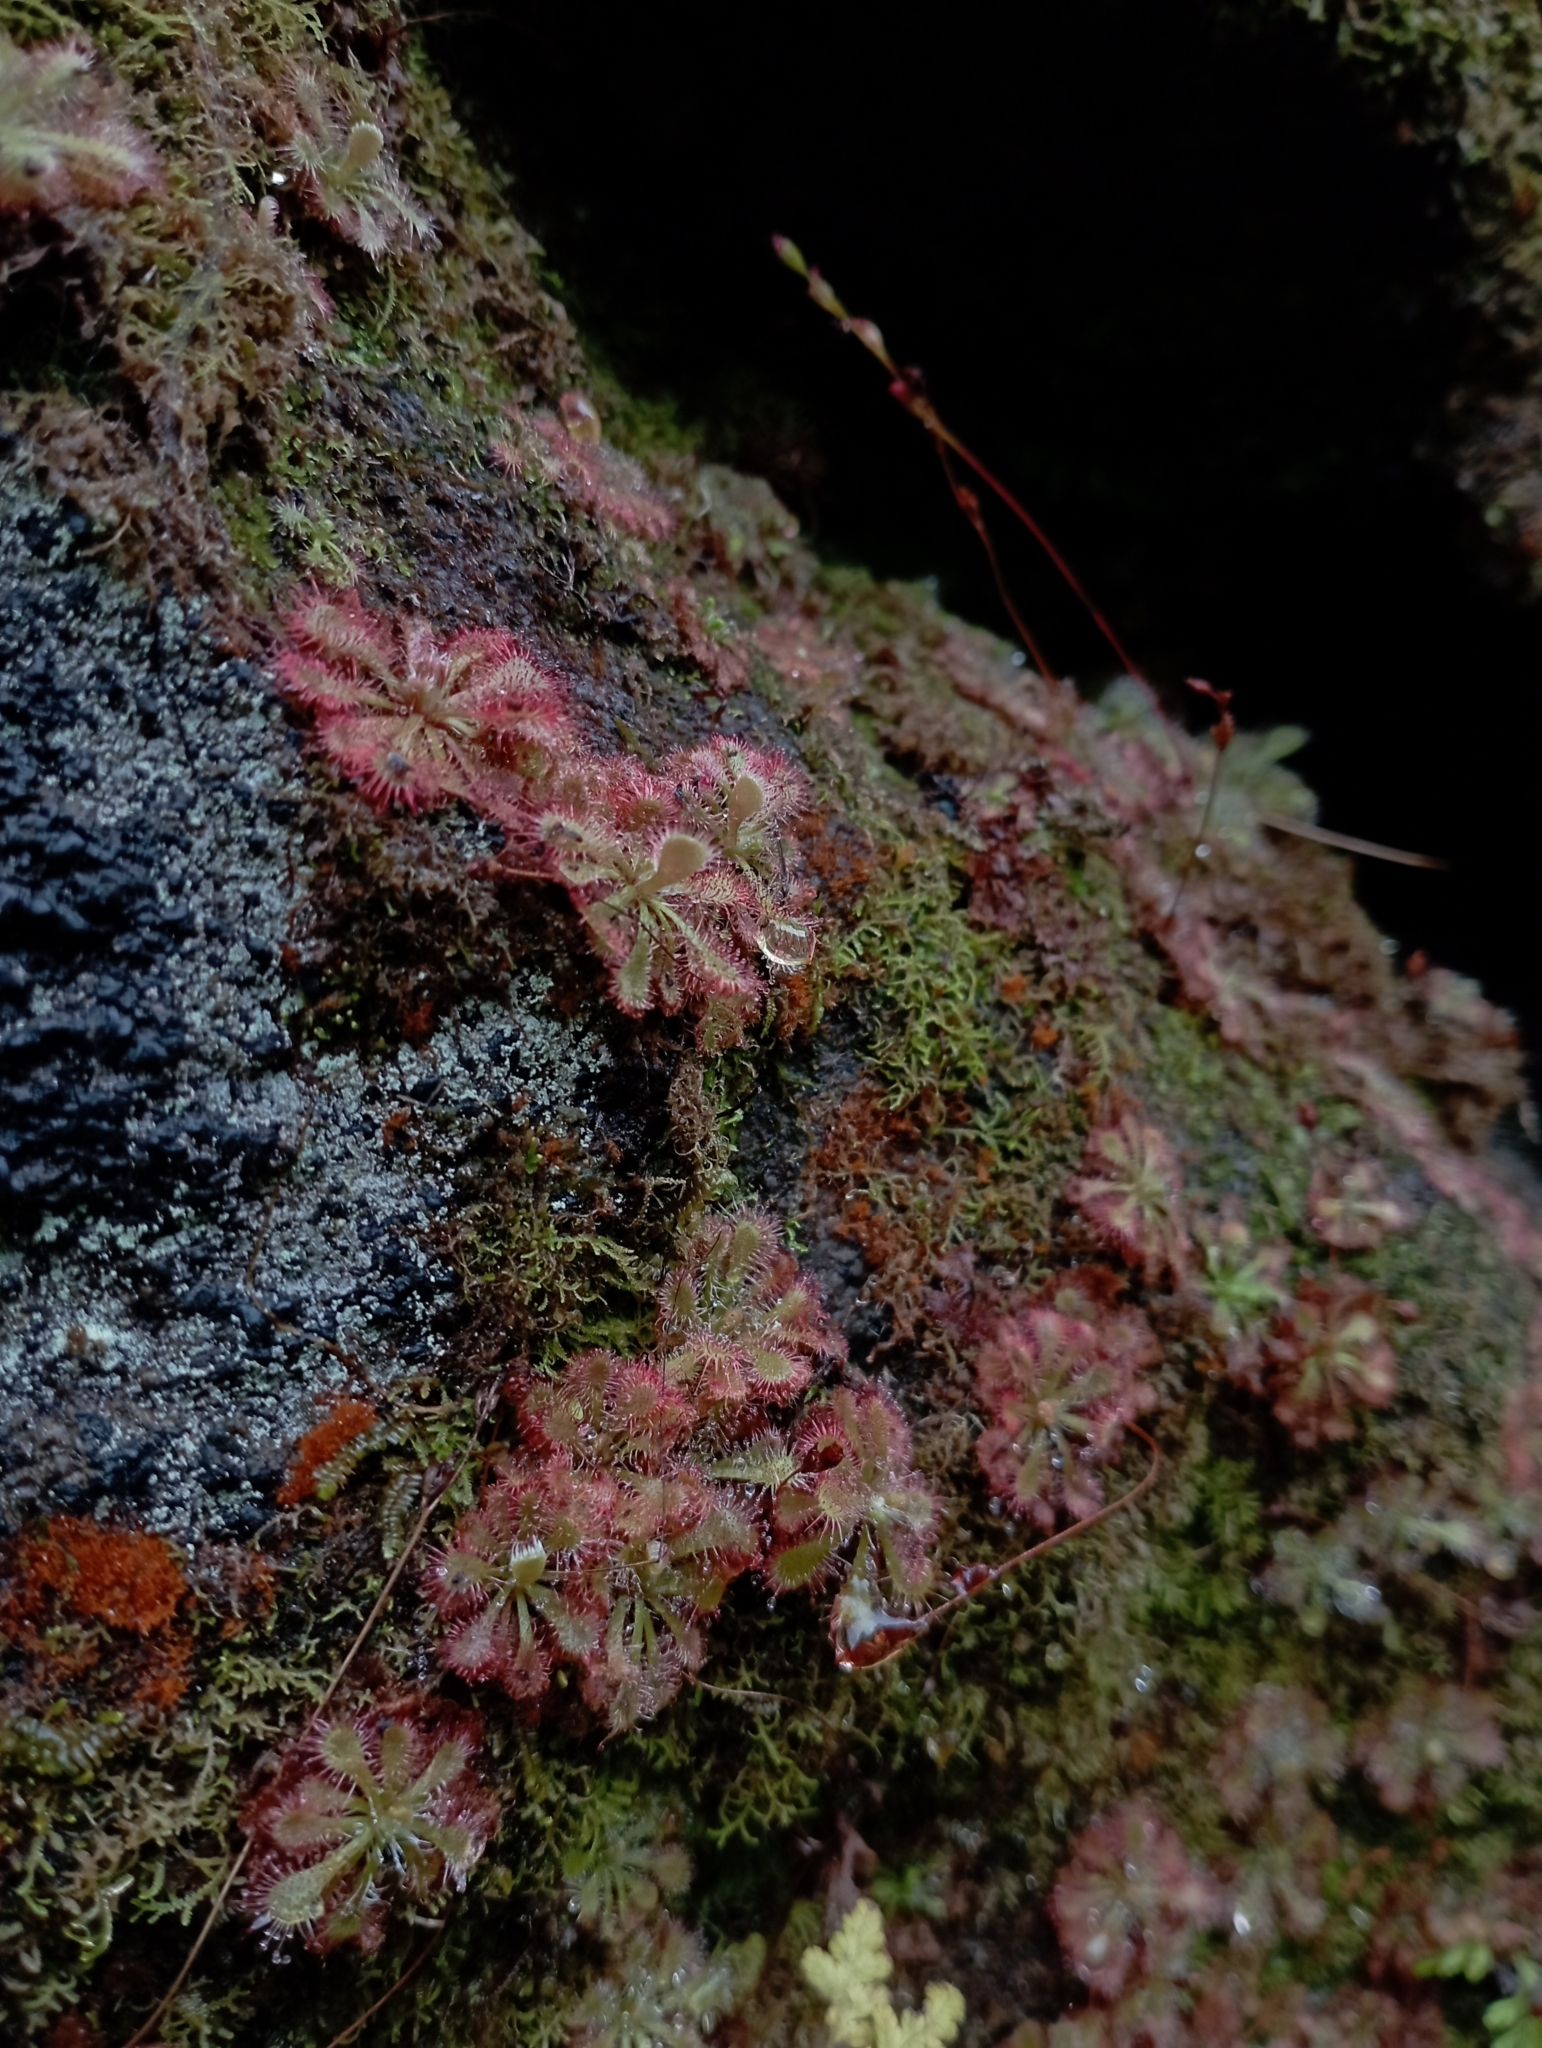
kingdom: Plantae
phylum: Tracheophyta
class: Magnoliopsida
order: Caryophyllales
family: Droseraceae
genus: Drosera
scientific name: Drosera spatulata
